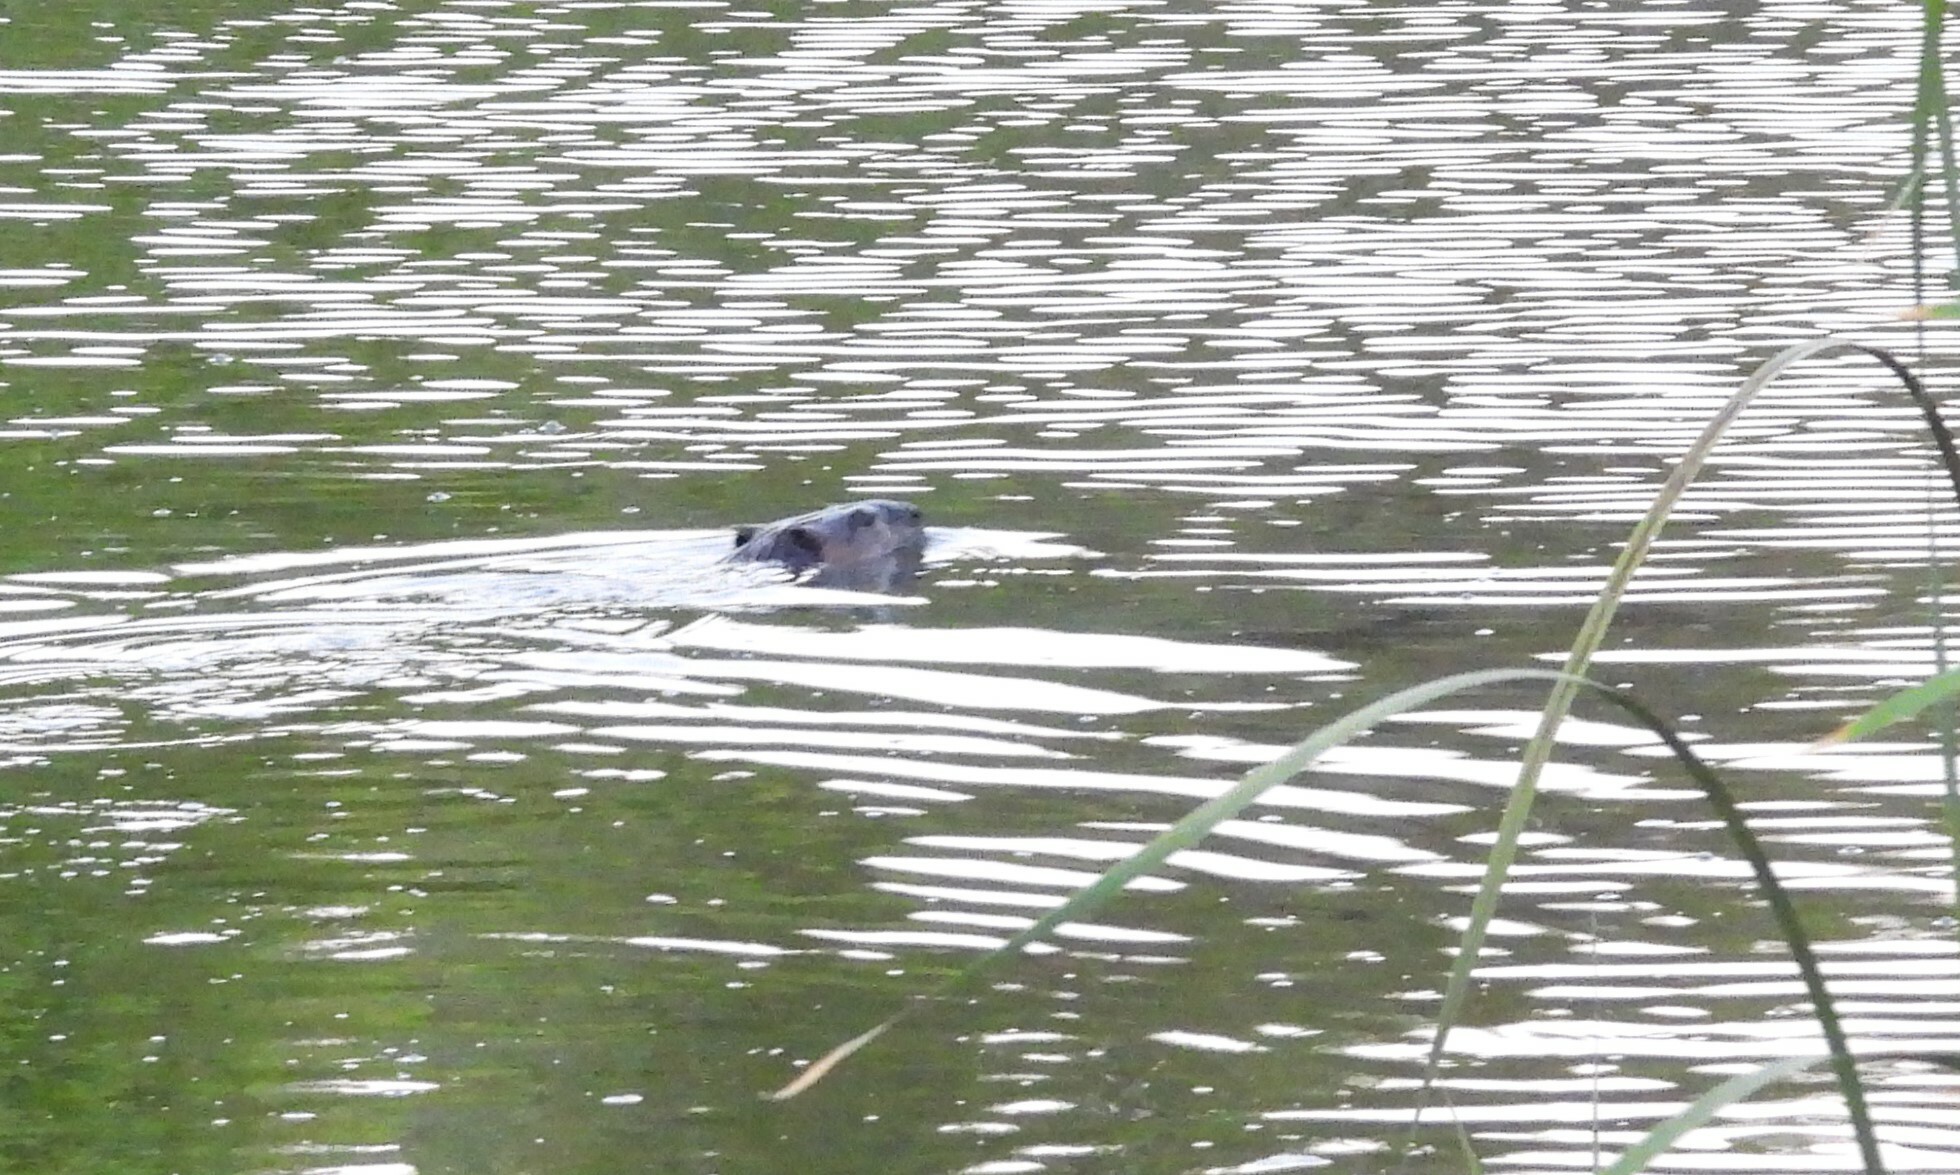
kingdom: Animalia
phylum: Chordata
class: Mammalia
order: Rodentia
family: Castoridae
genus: Castor
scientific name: Castor canadensis
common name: American beaver
